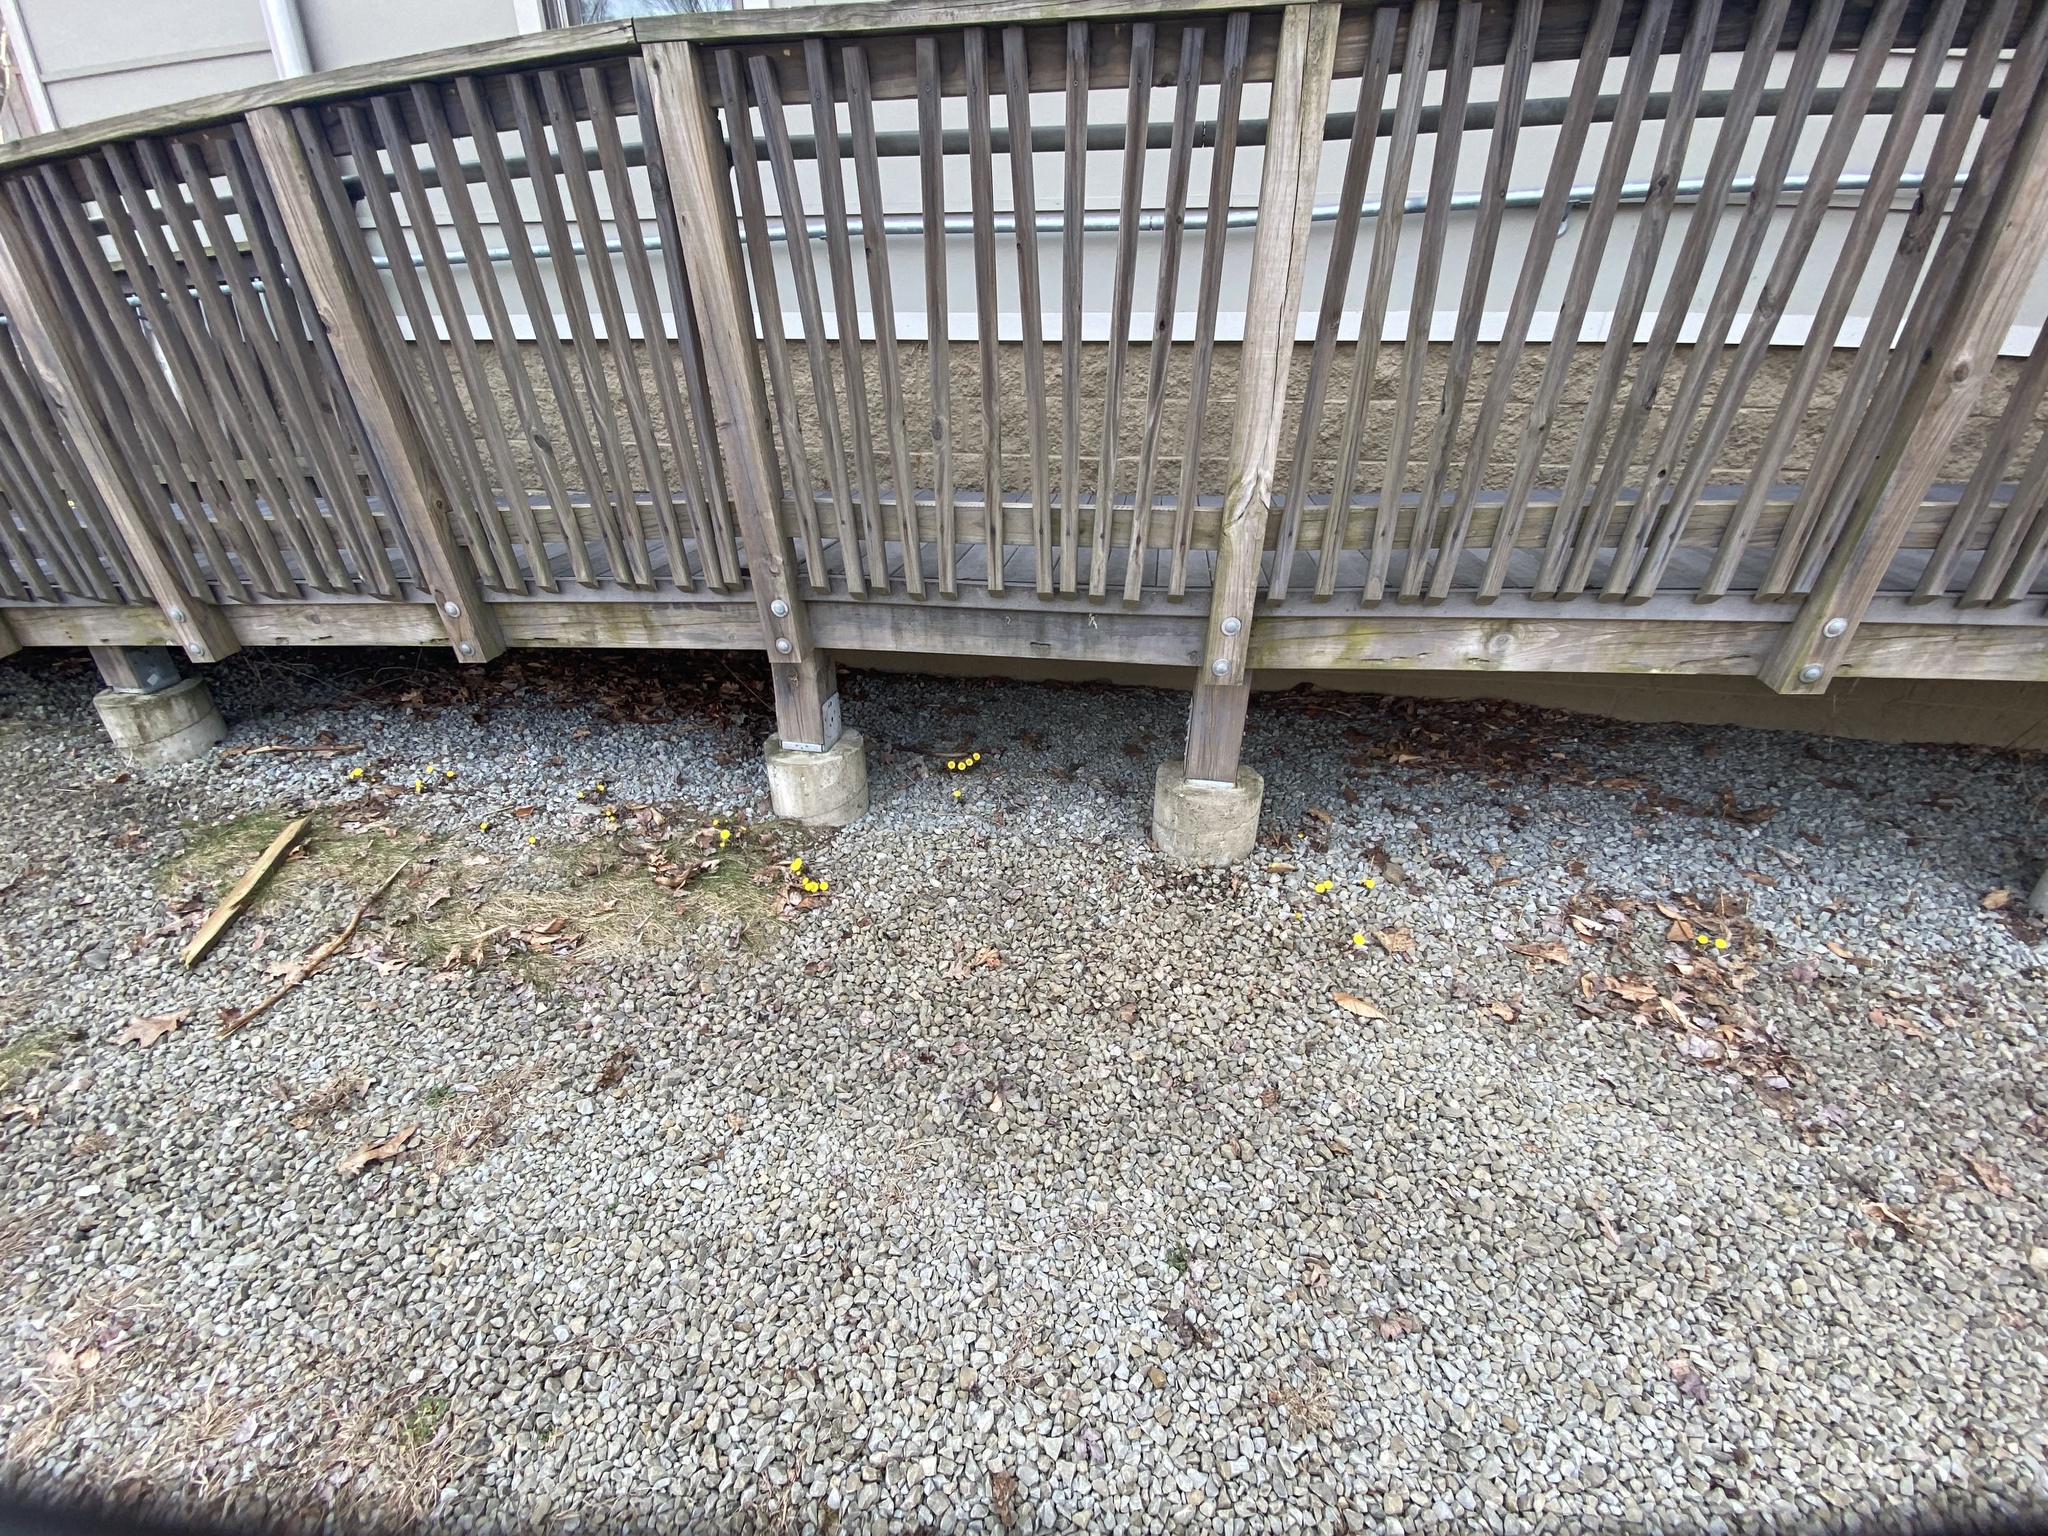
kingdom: Plantae
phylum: Tracheophyta
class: Magnoliopsida
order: Asterales
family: Asteraceae
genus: Tussilago
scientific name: Tussilago farfara
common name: Coltsfoot
